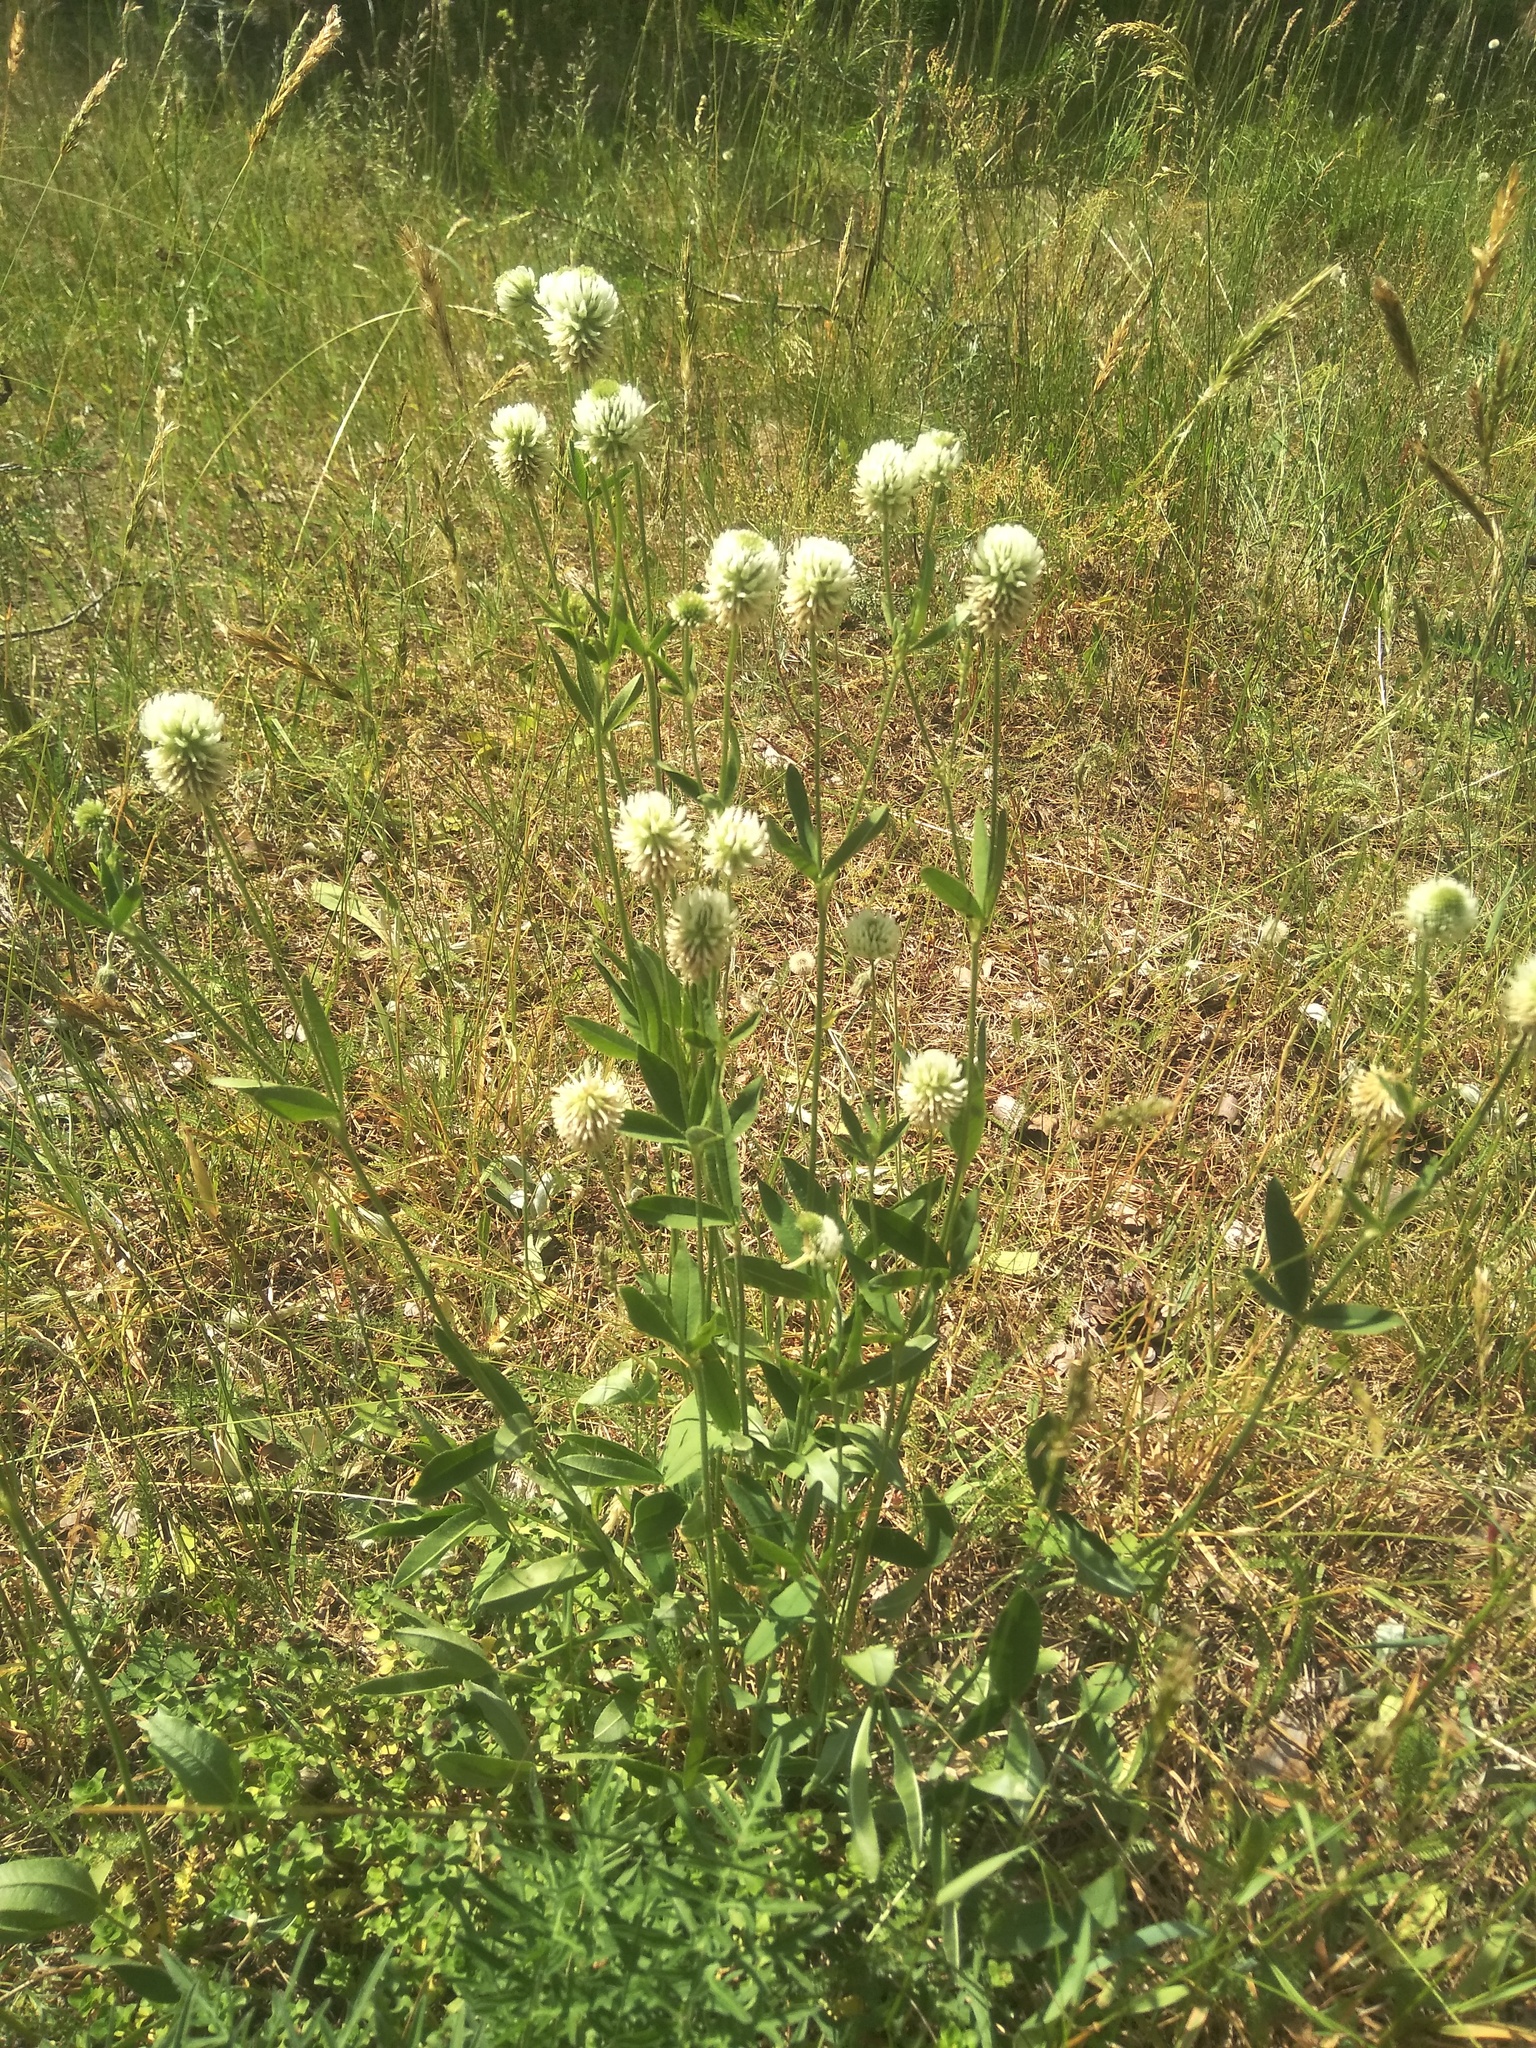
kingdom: Plantae
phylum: Tracheophyta
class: Magnoliopsida
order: Fabales
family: Fabaceae
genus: Trifolium
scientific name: Trifolium montanum
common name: Mountain clover
